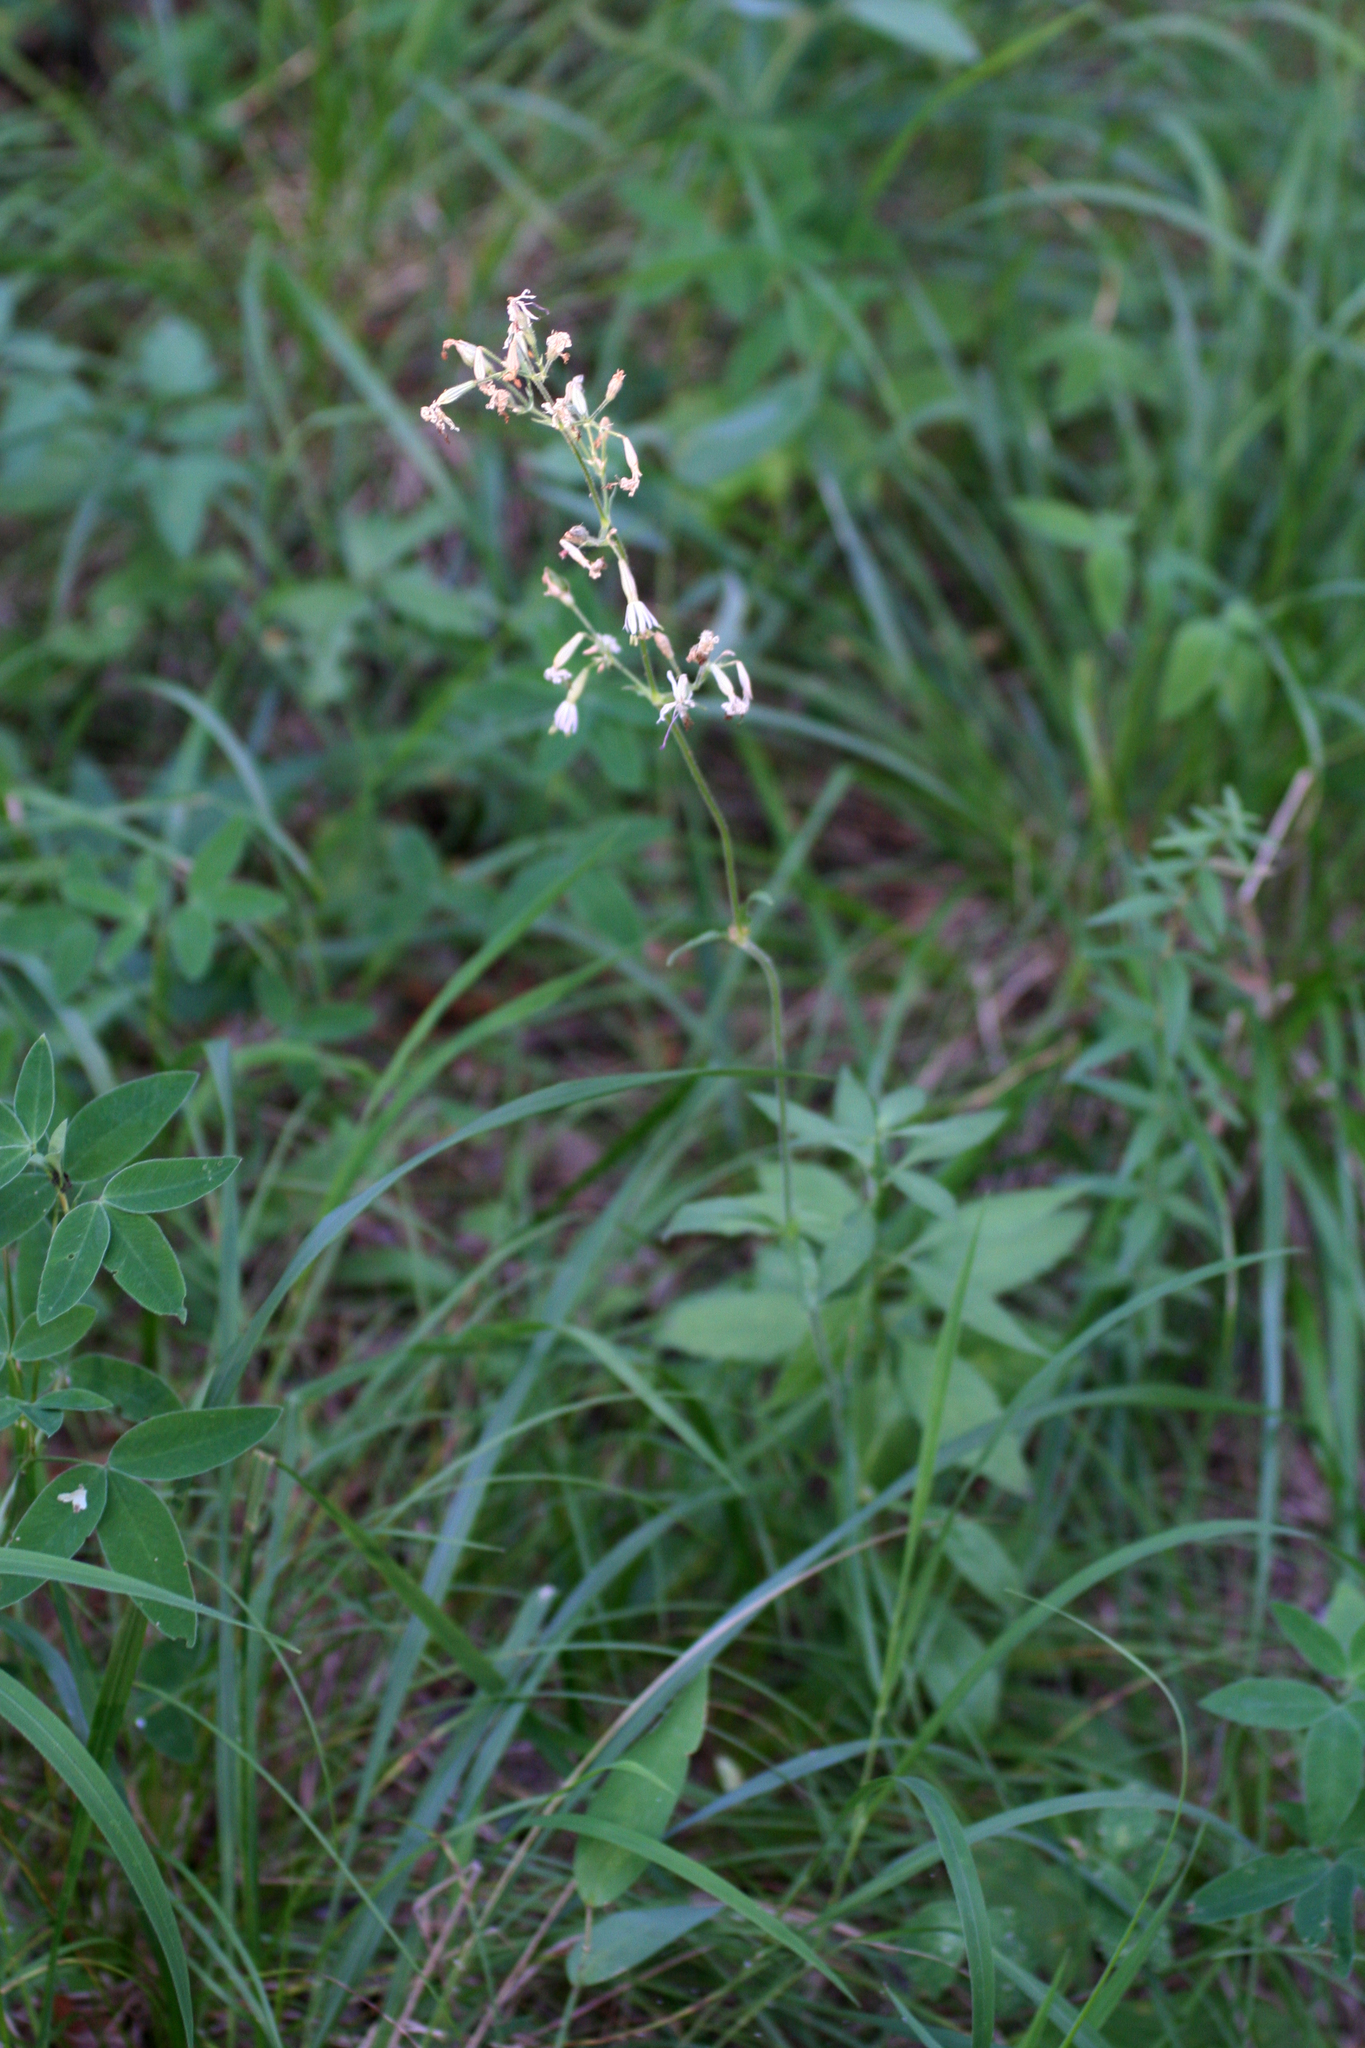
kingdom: Plantae
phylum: Tracheophyta
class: Magnoliopsida
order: Caryophyllales
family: Caryophyllaceae
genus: Silene
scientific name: Silene nutans
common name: Nottingham catchfly
